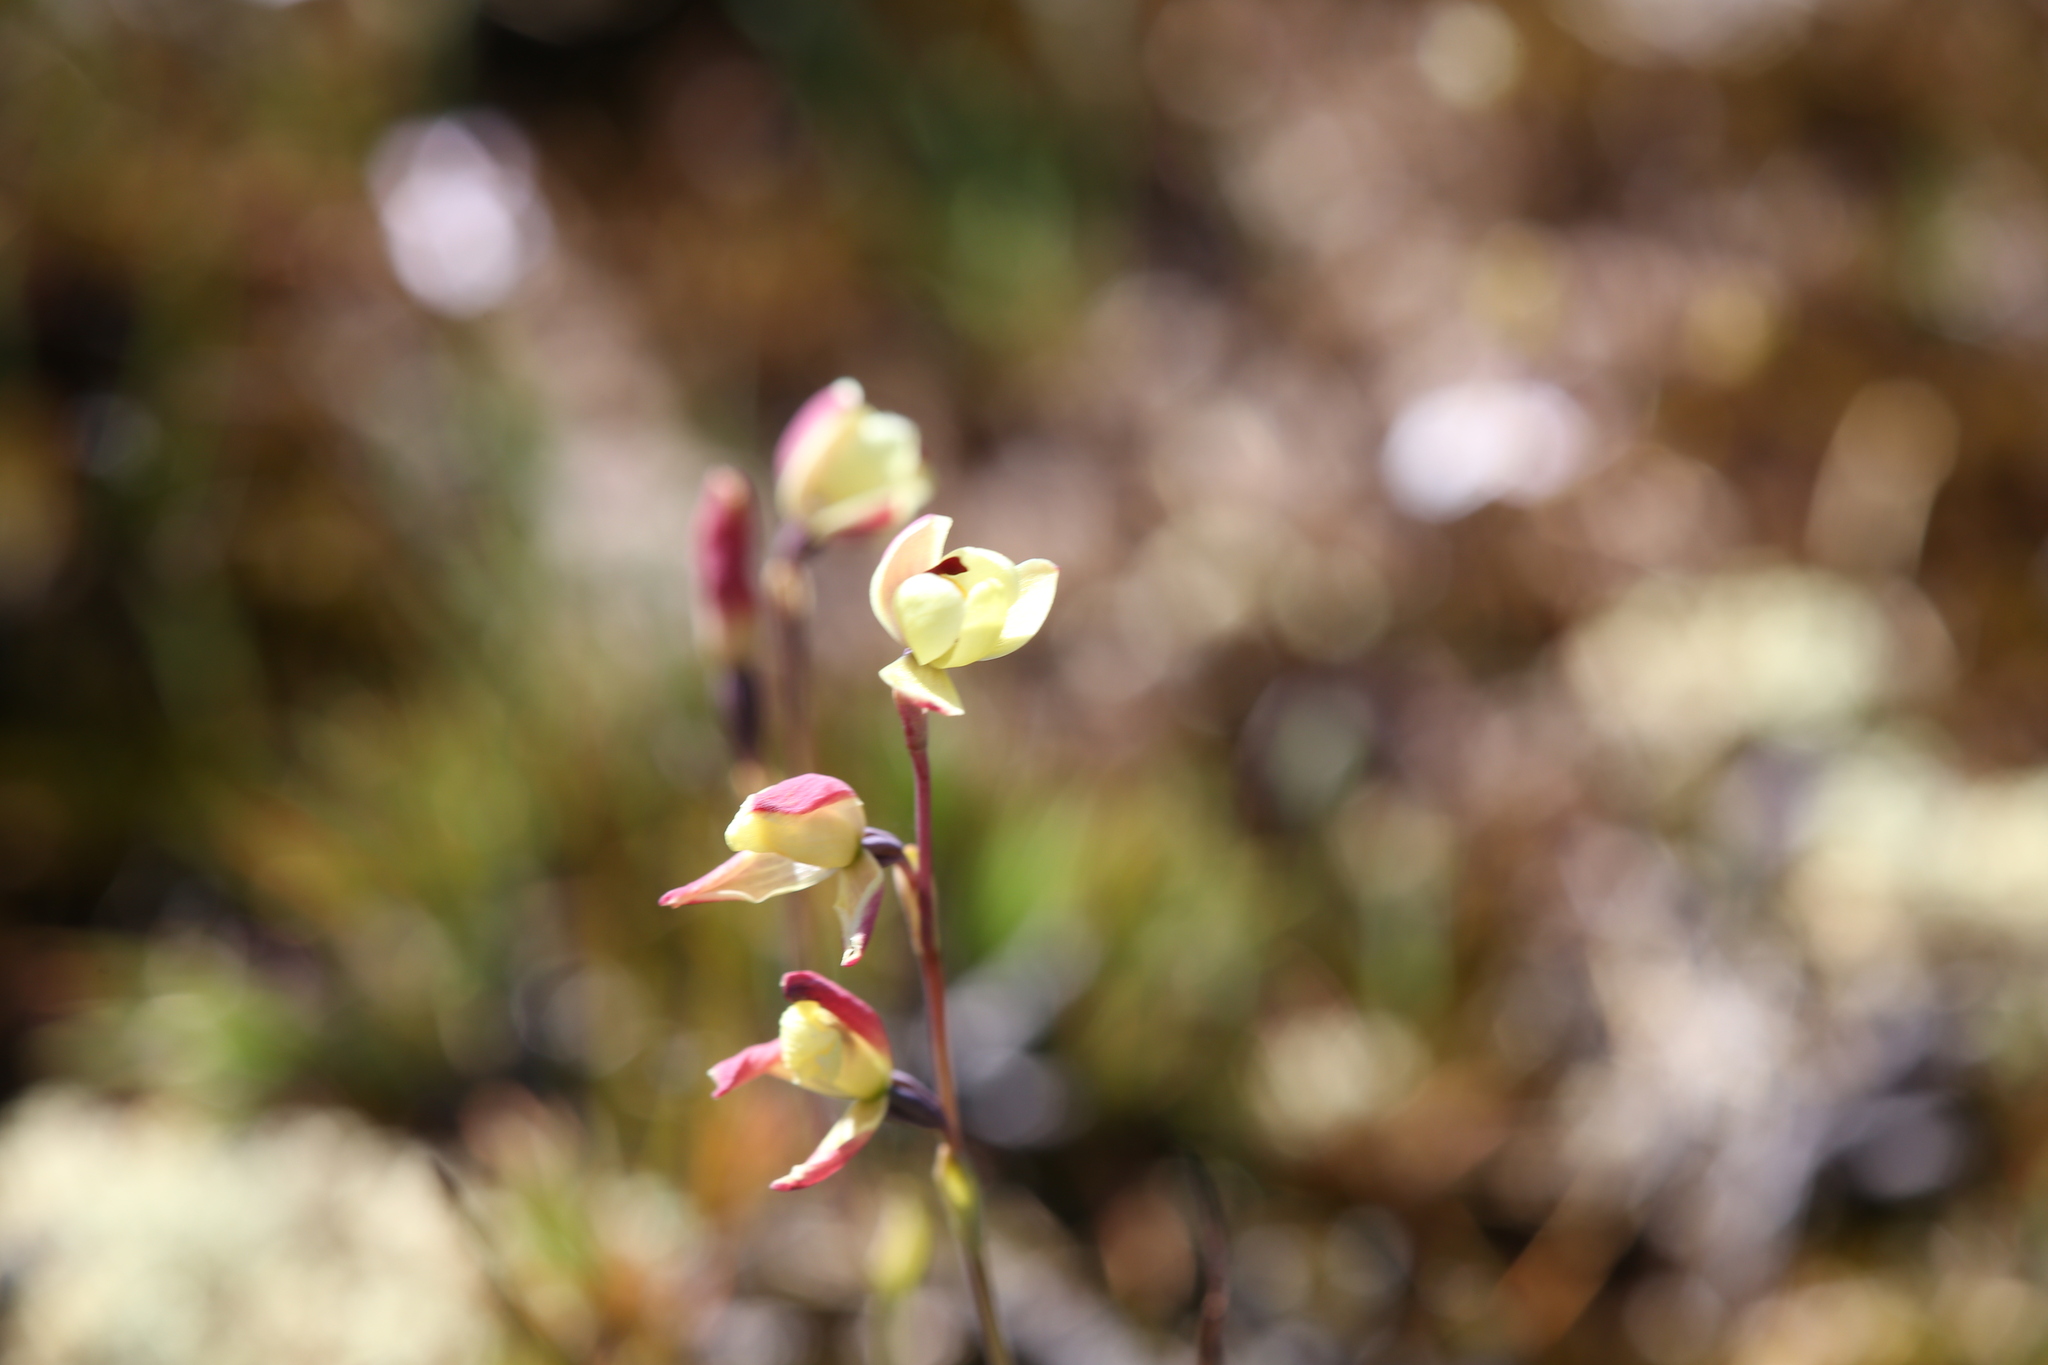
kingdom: Plantae
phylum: Tracheophyta
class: Liliopsida
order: Asparagales
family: Orchidaceae
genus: Thelymitra
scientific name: Thelymitra antennifera
